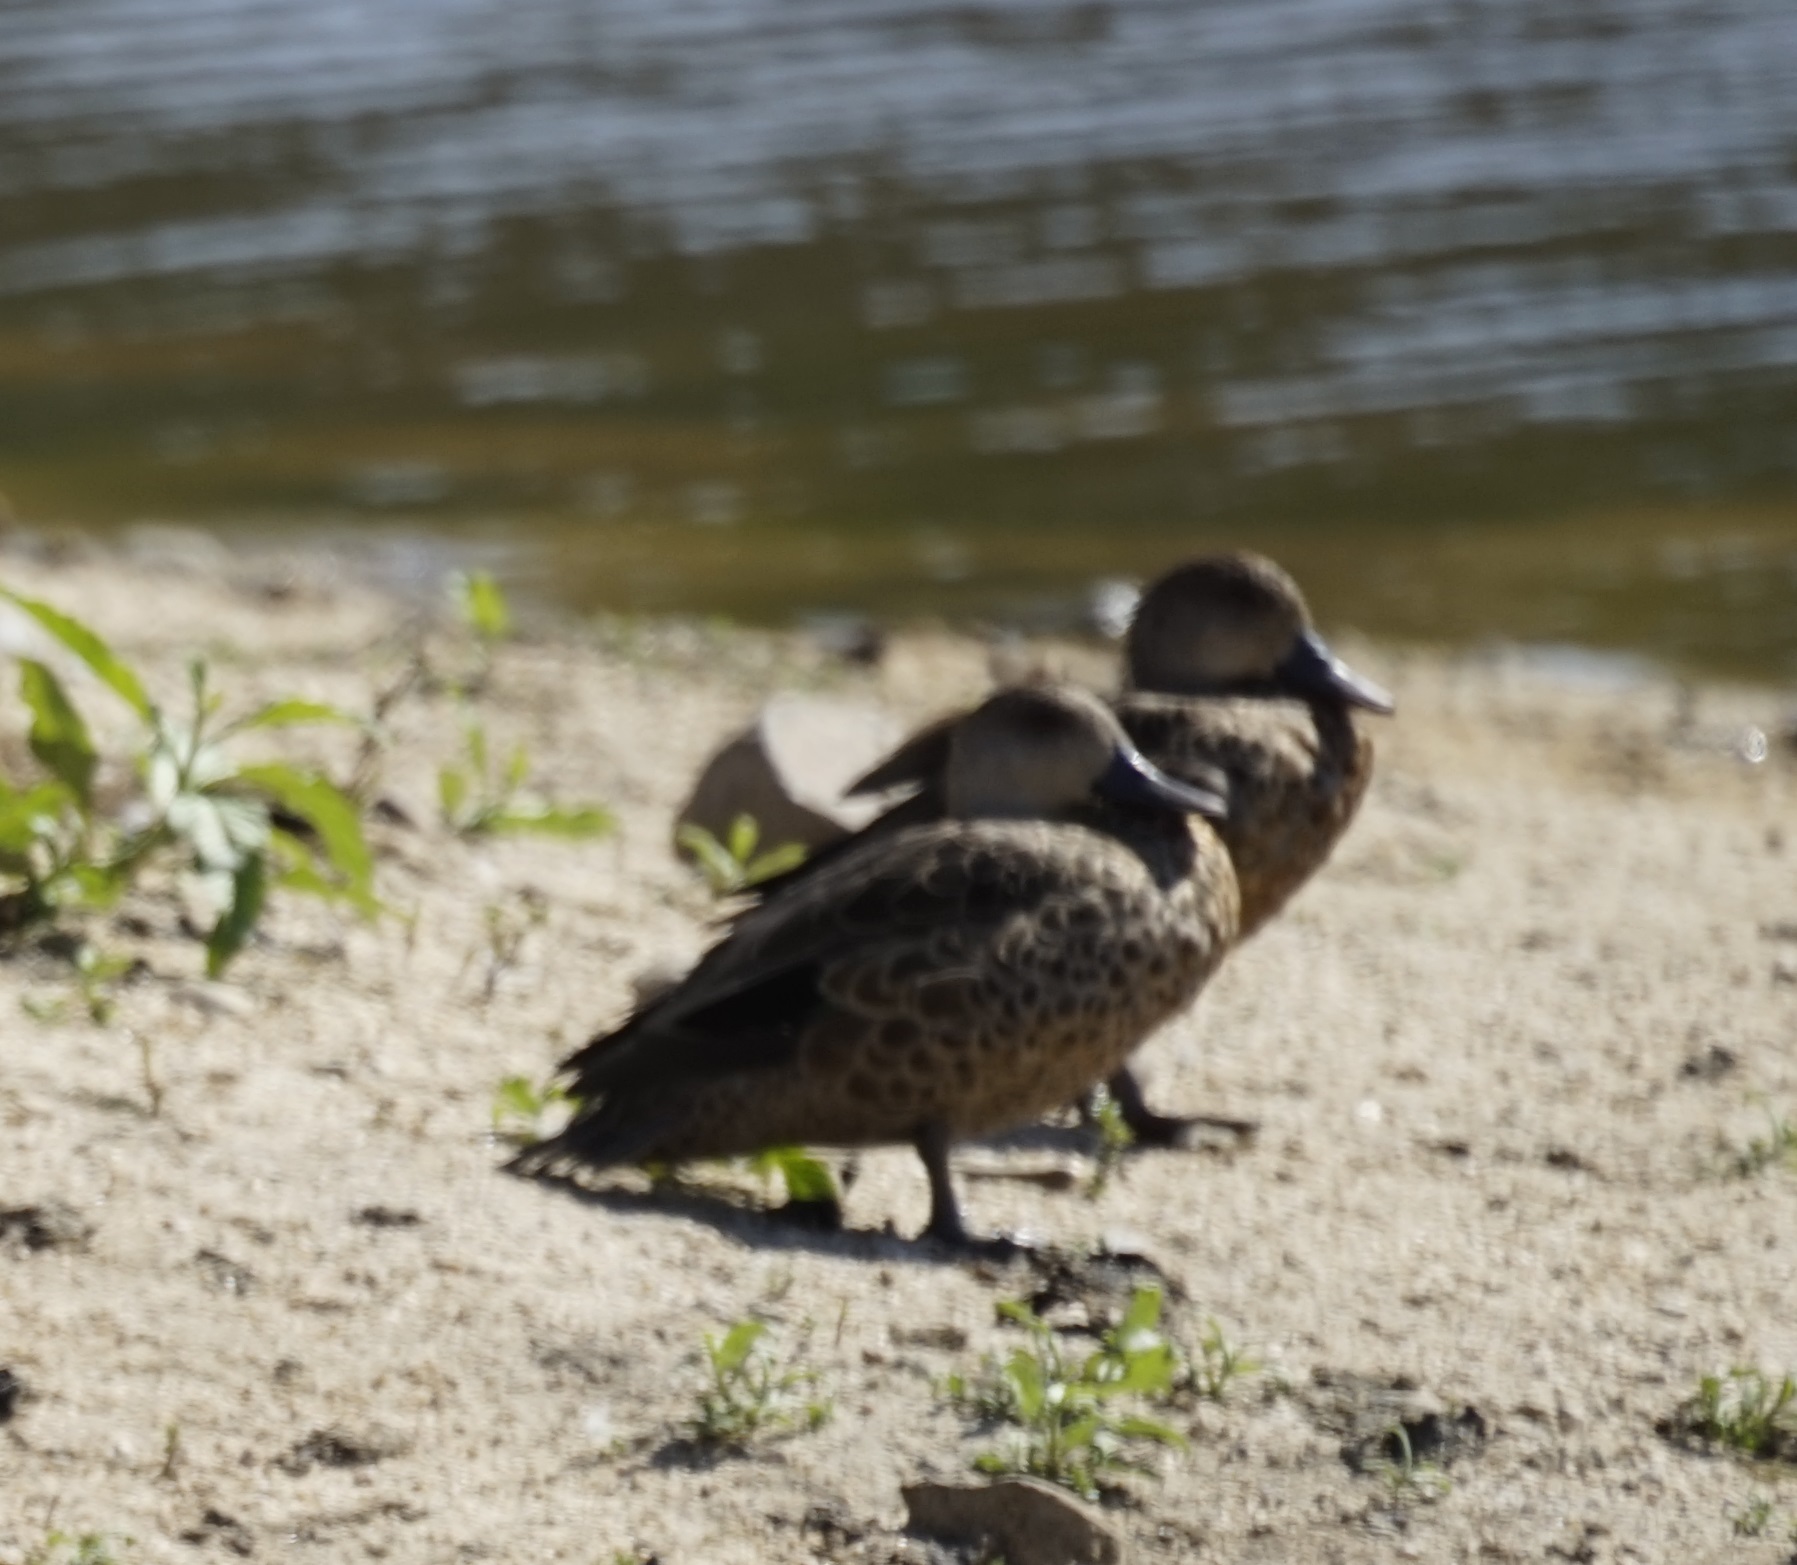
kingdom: Animalia
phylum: Chordata
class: Aves
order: Anseriformes
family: Anatidae
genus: Anas
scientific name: Anas gracilis
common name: Grey teal
